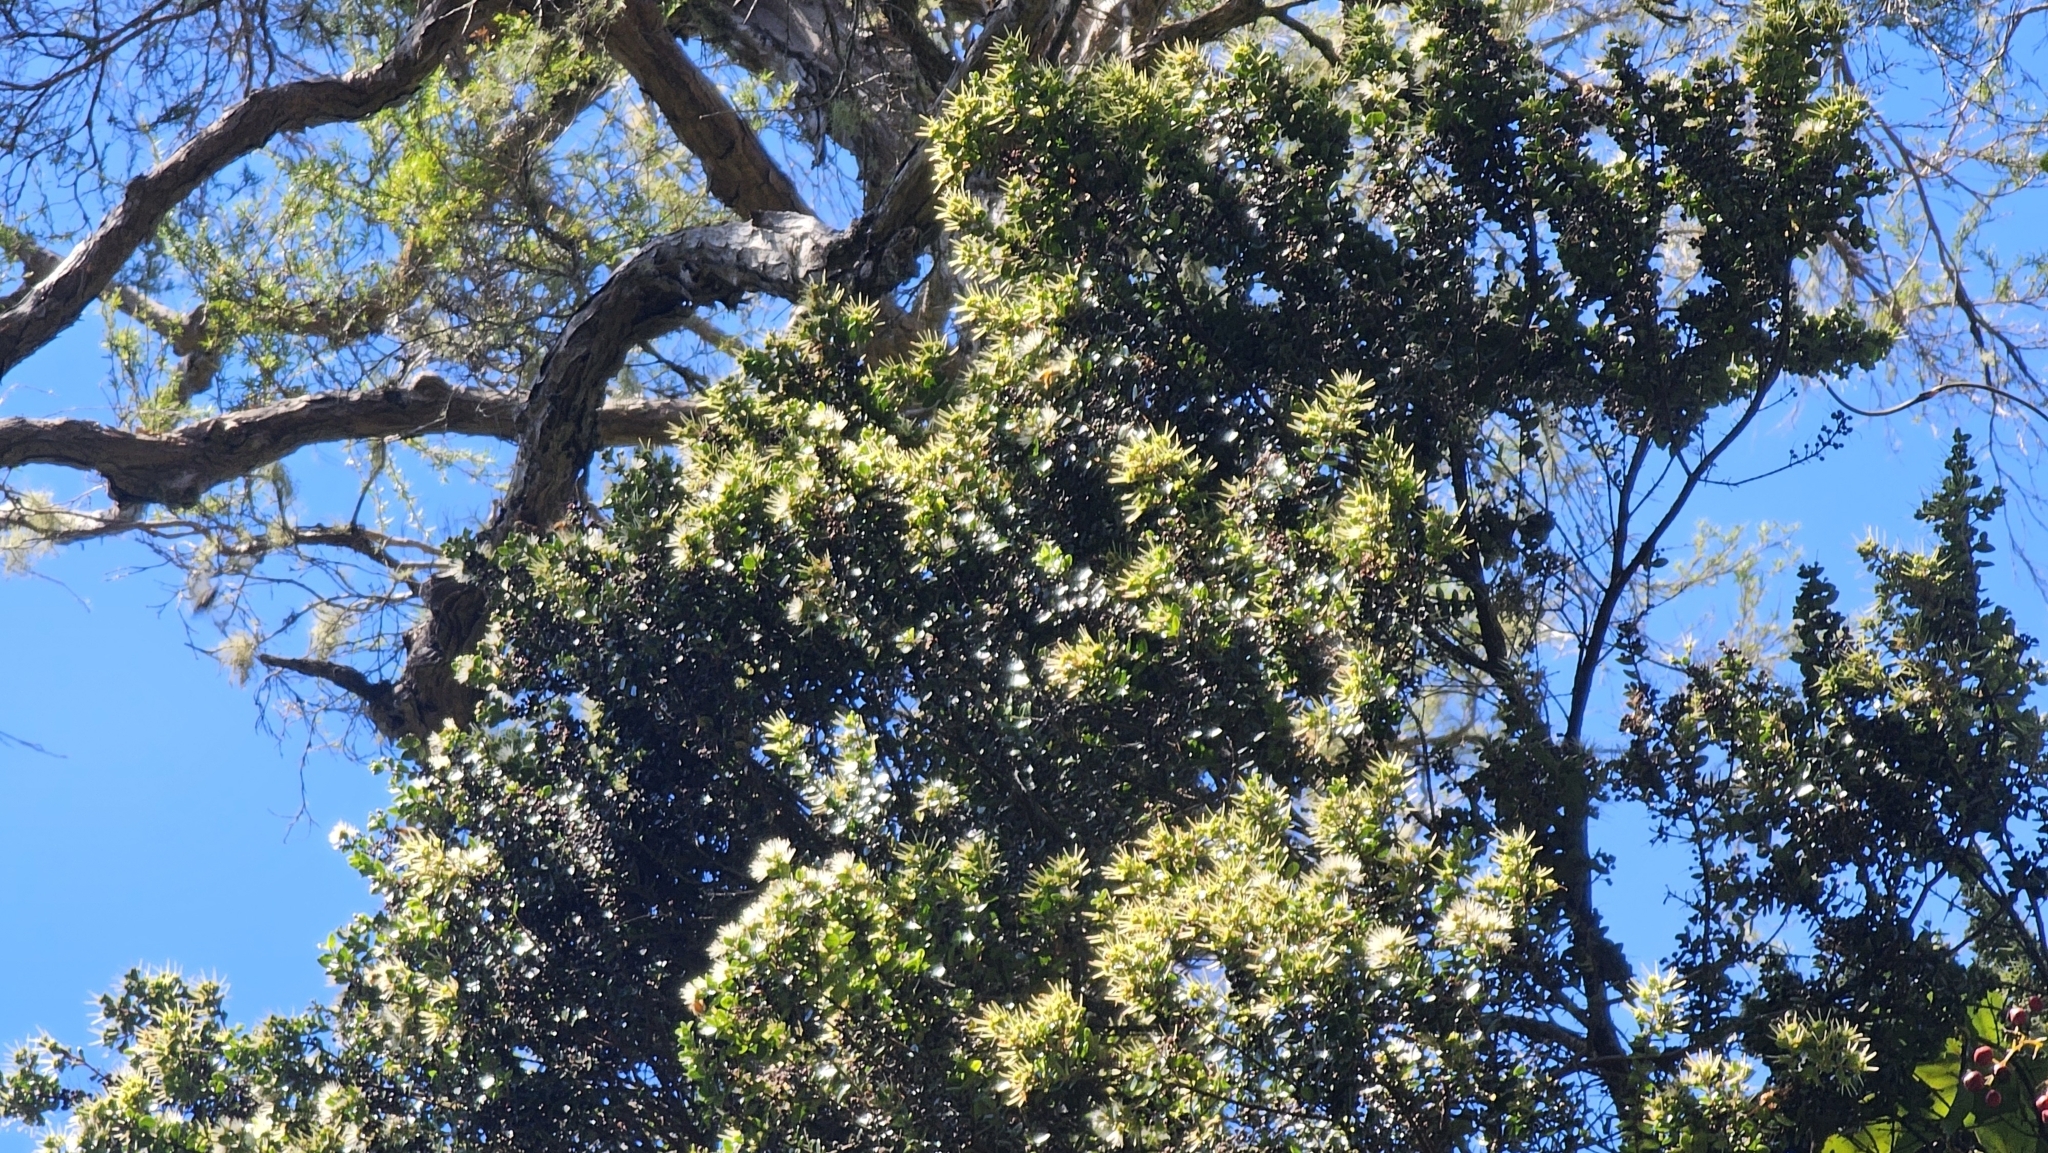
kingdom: Plantae
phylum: Tracheophyta
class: Magnoliopsida
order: Myrtales
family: Myrtaceae
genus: Metrosideros
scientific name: Metrosideros perforata
